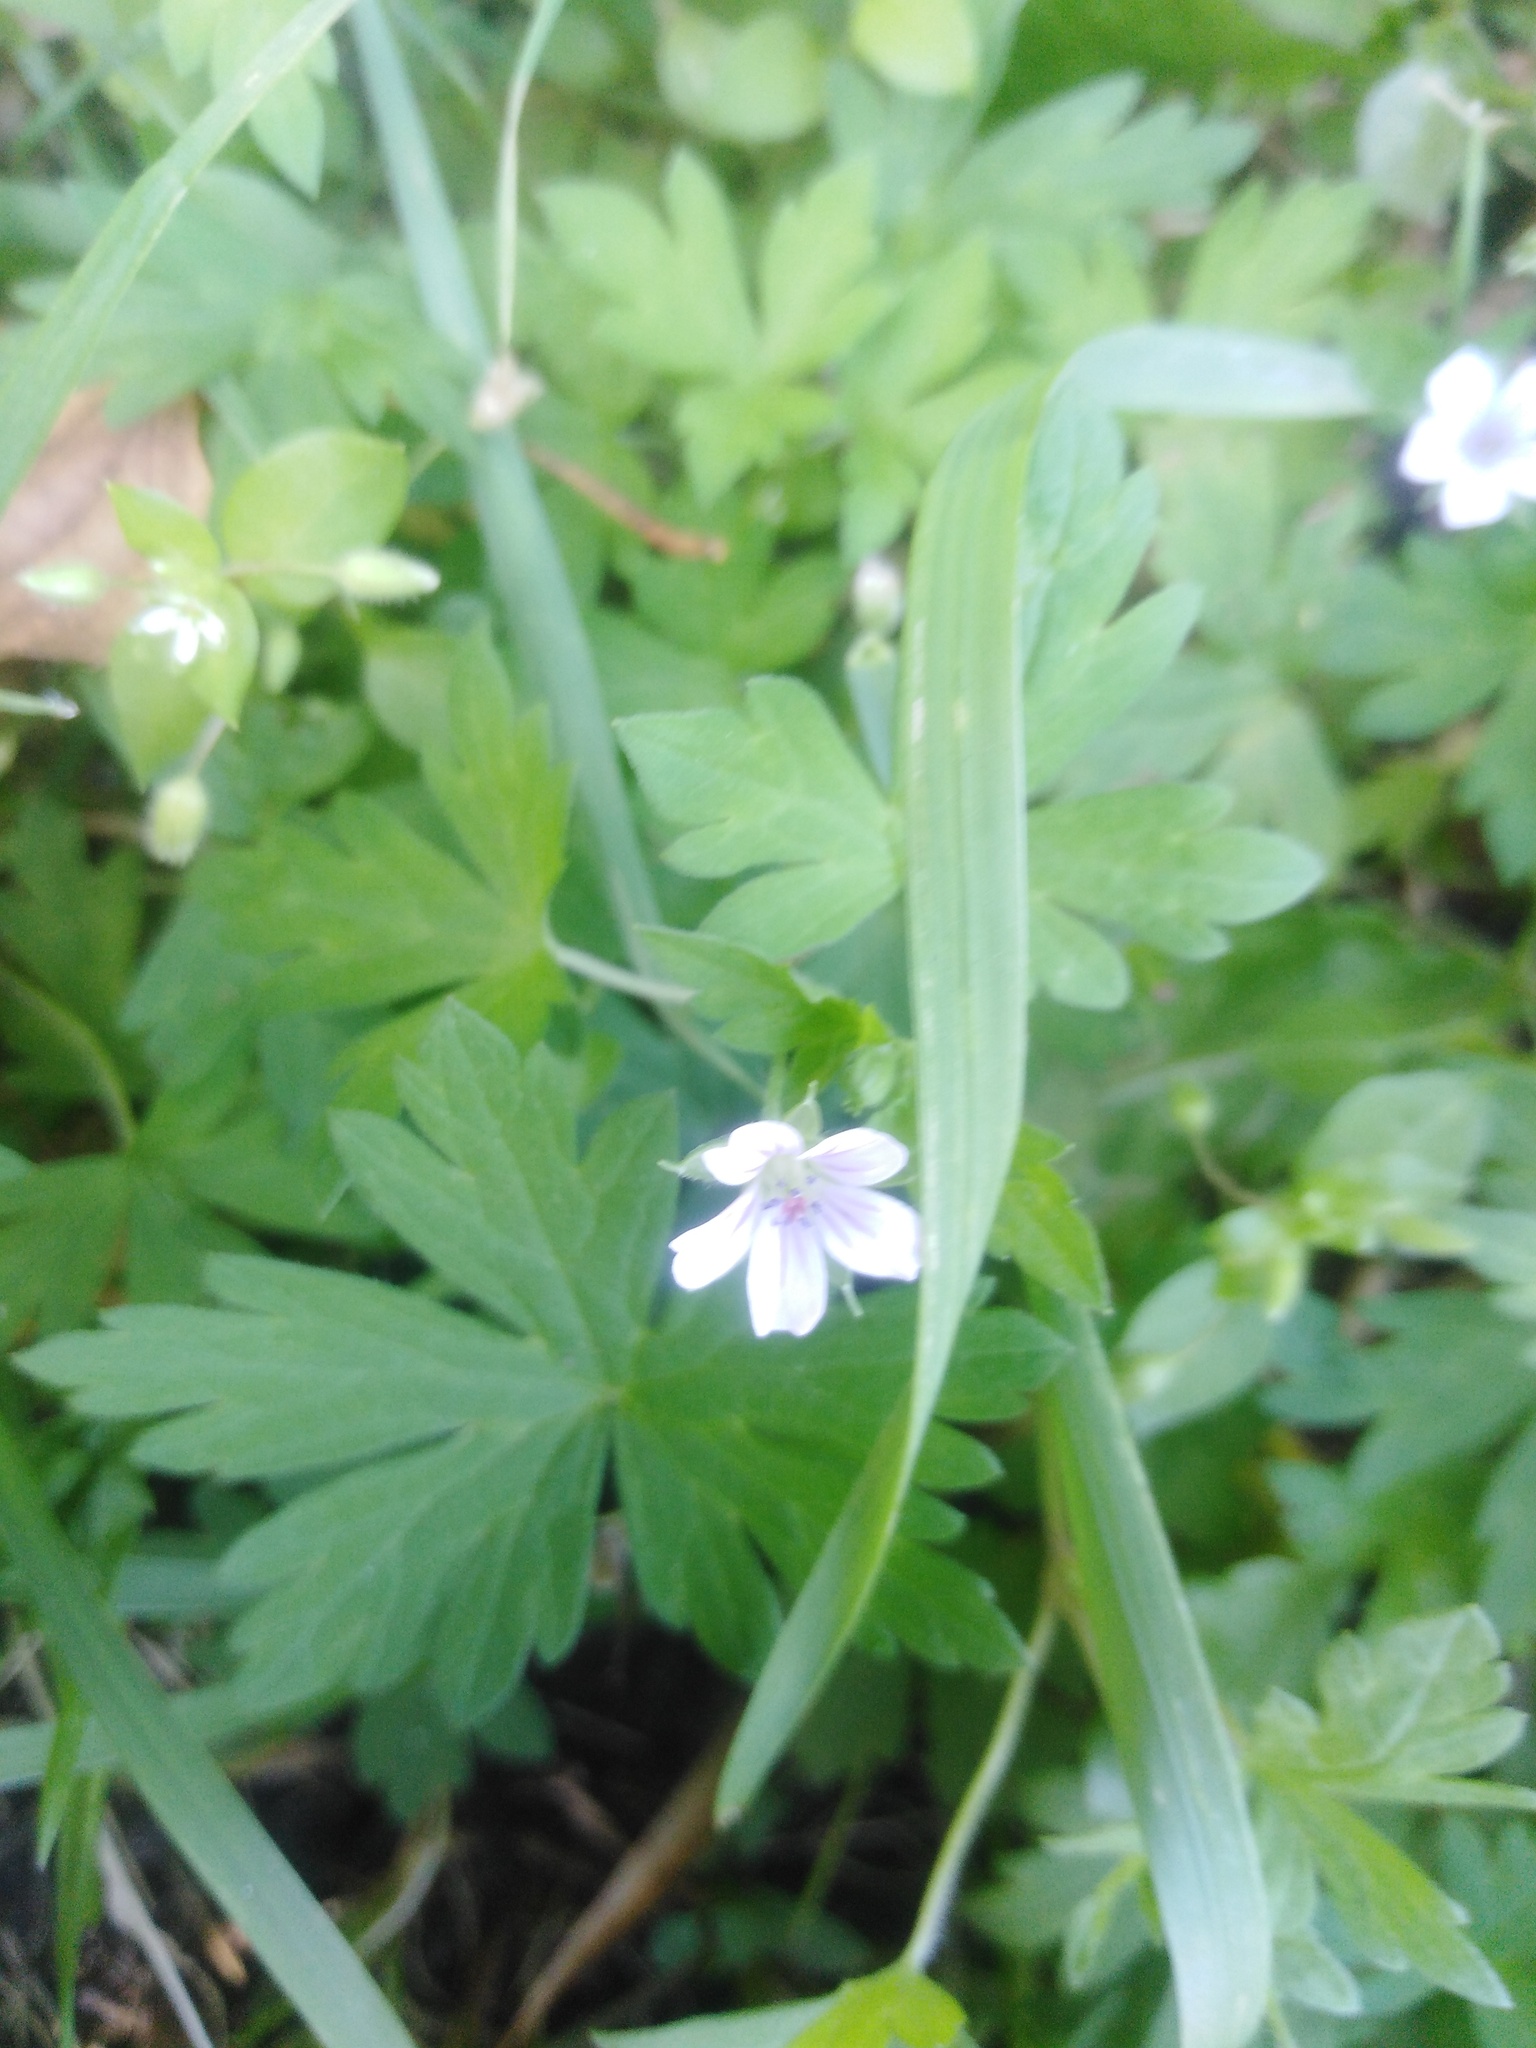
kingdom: Plantae
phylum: Tracheophyta
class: Magnoliopsida
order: Geraniales
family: Geraniaceae
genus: Geranium
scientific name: Geranium sibiricum
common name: Siberian crane's-bill
